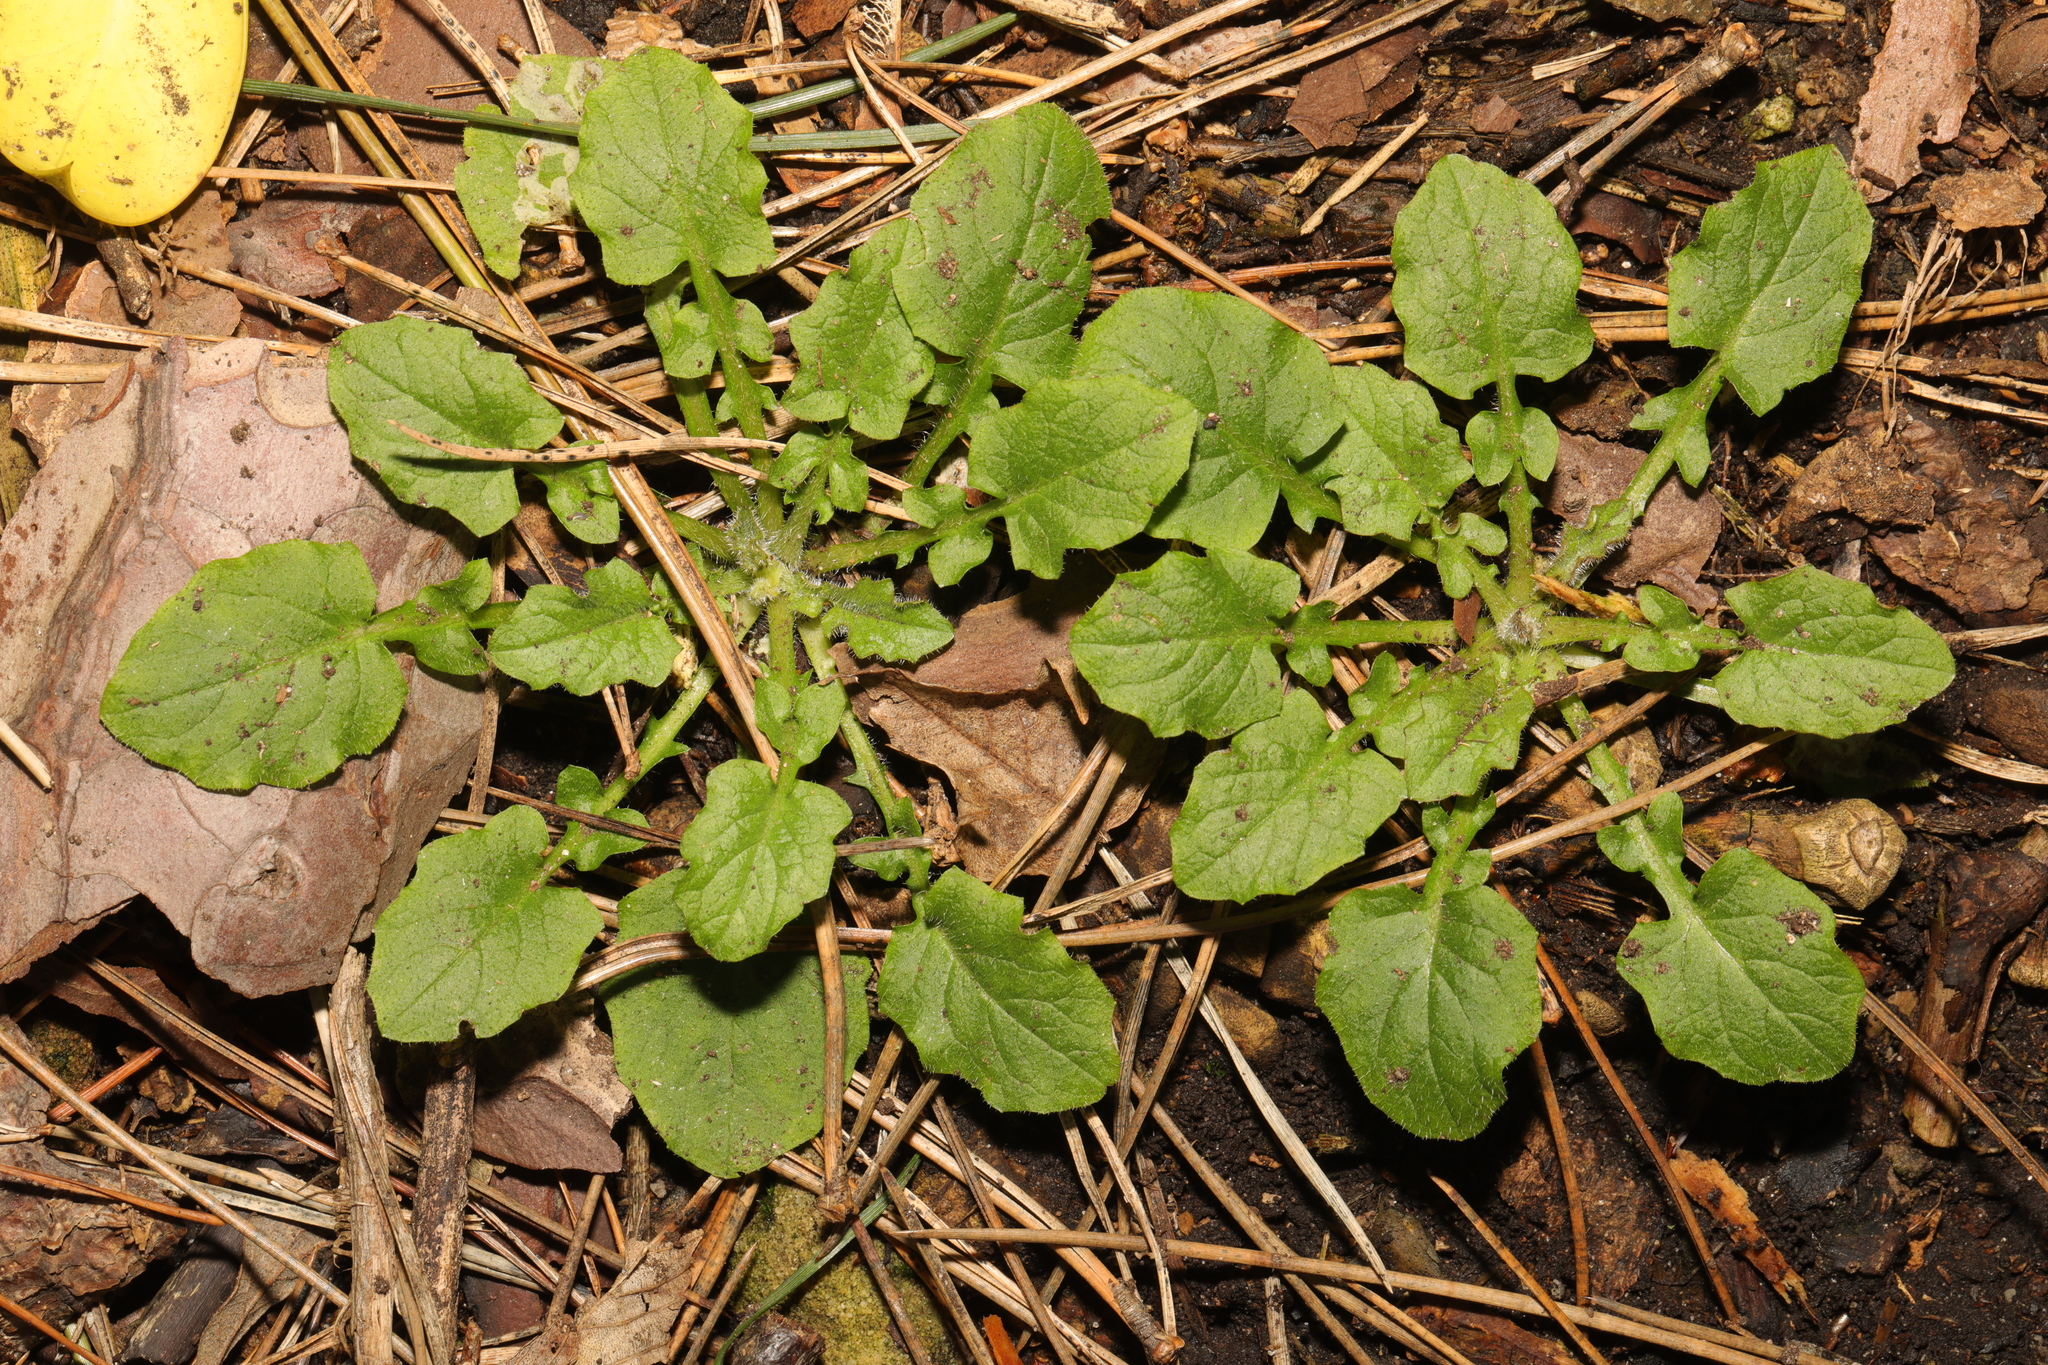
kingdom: Plantae
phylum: Tracheophyta
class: Magnoliopsida
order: Asterales
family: Asteraceae
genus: Lapsana
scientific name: Lapsana communis
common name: Nipplewort
